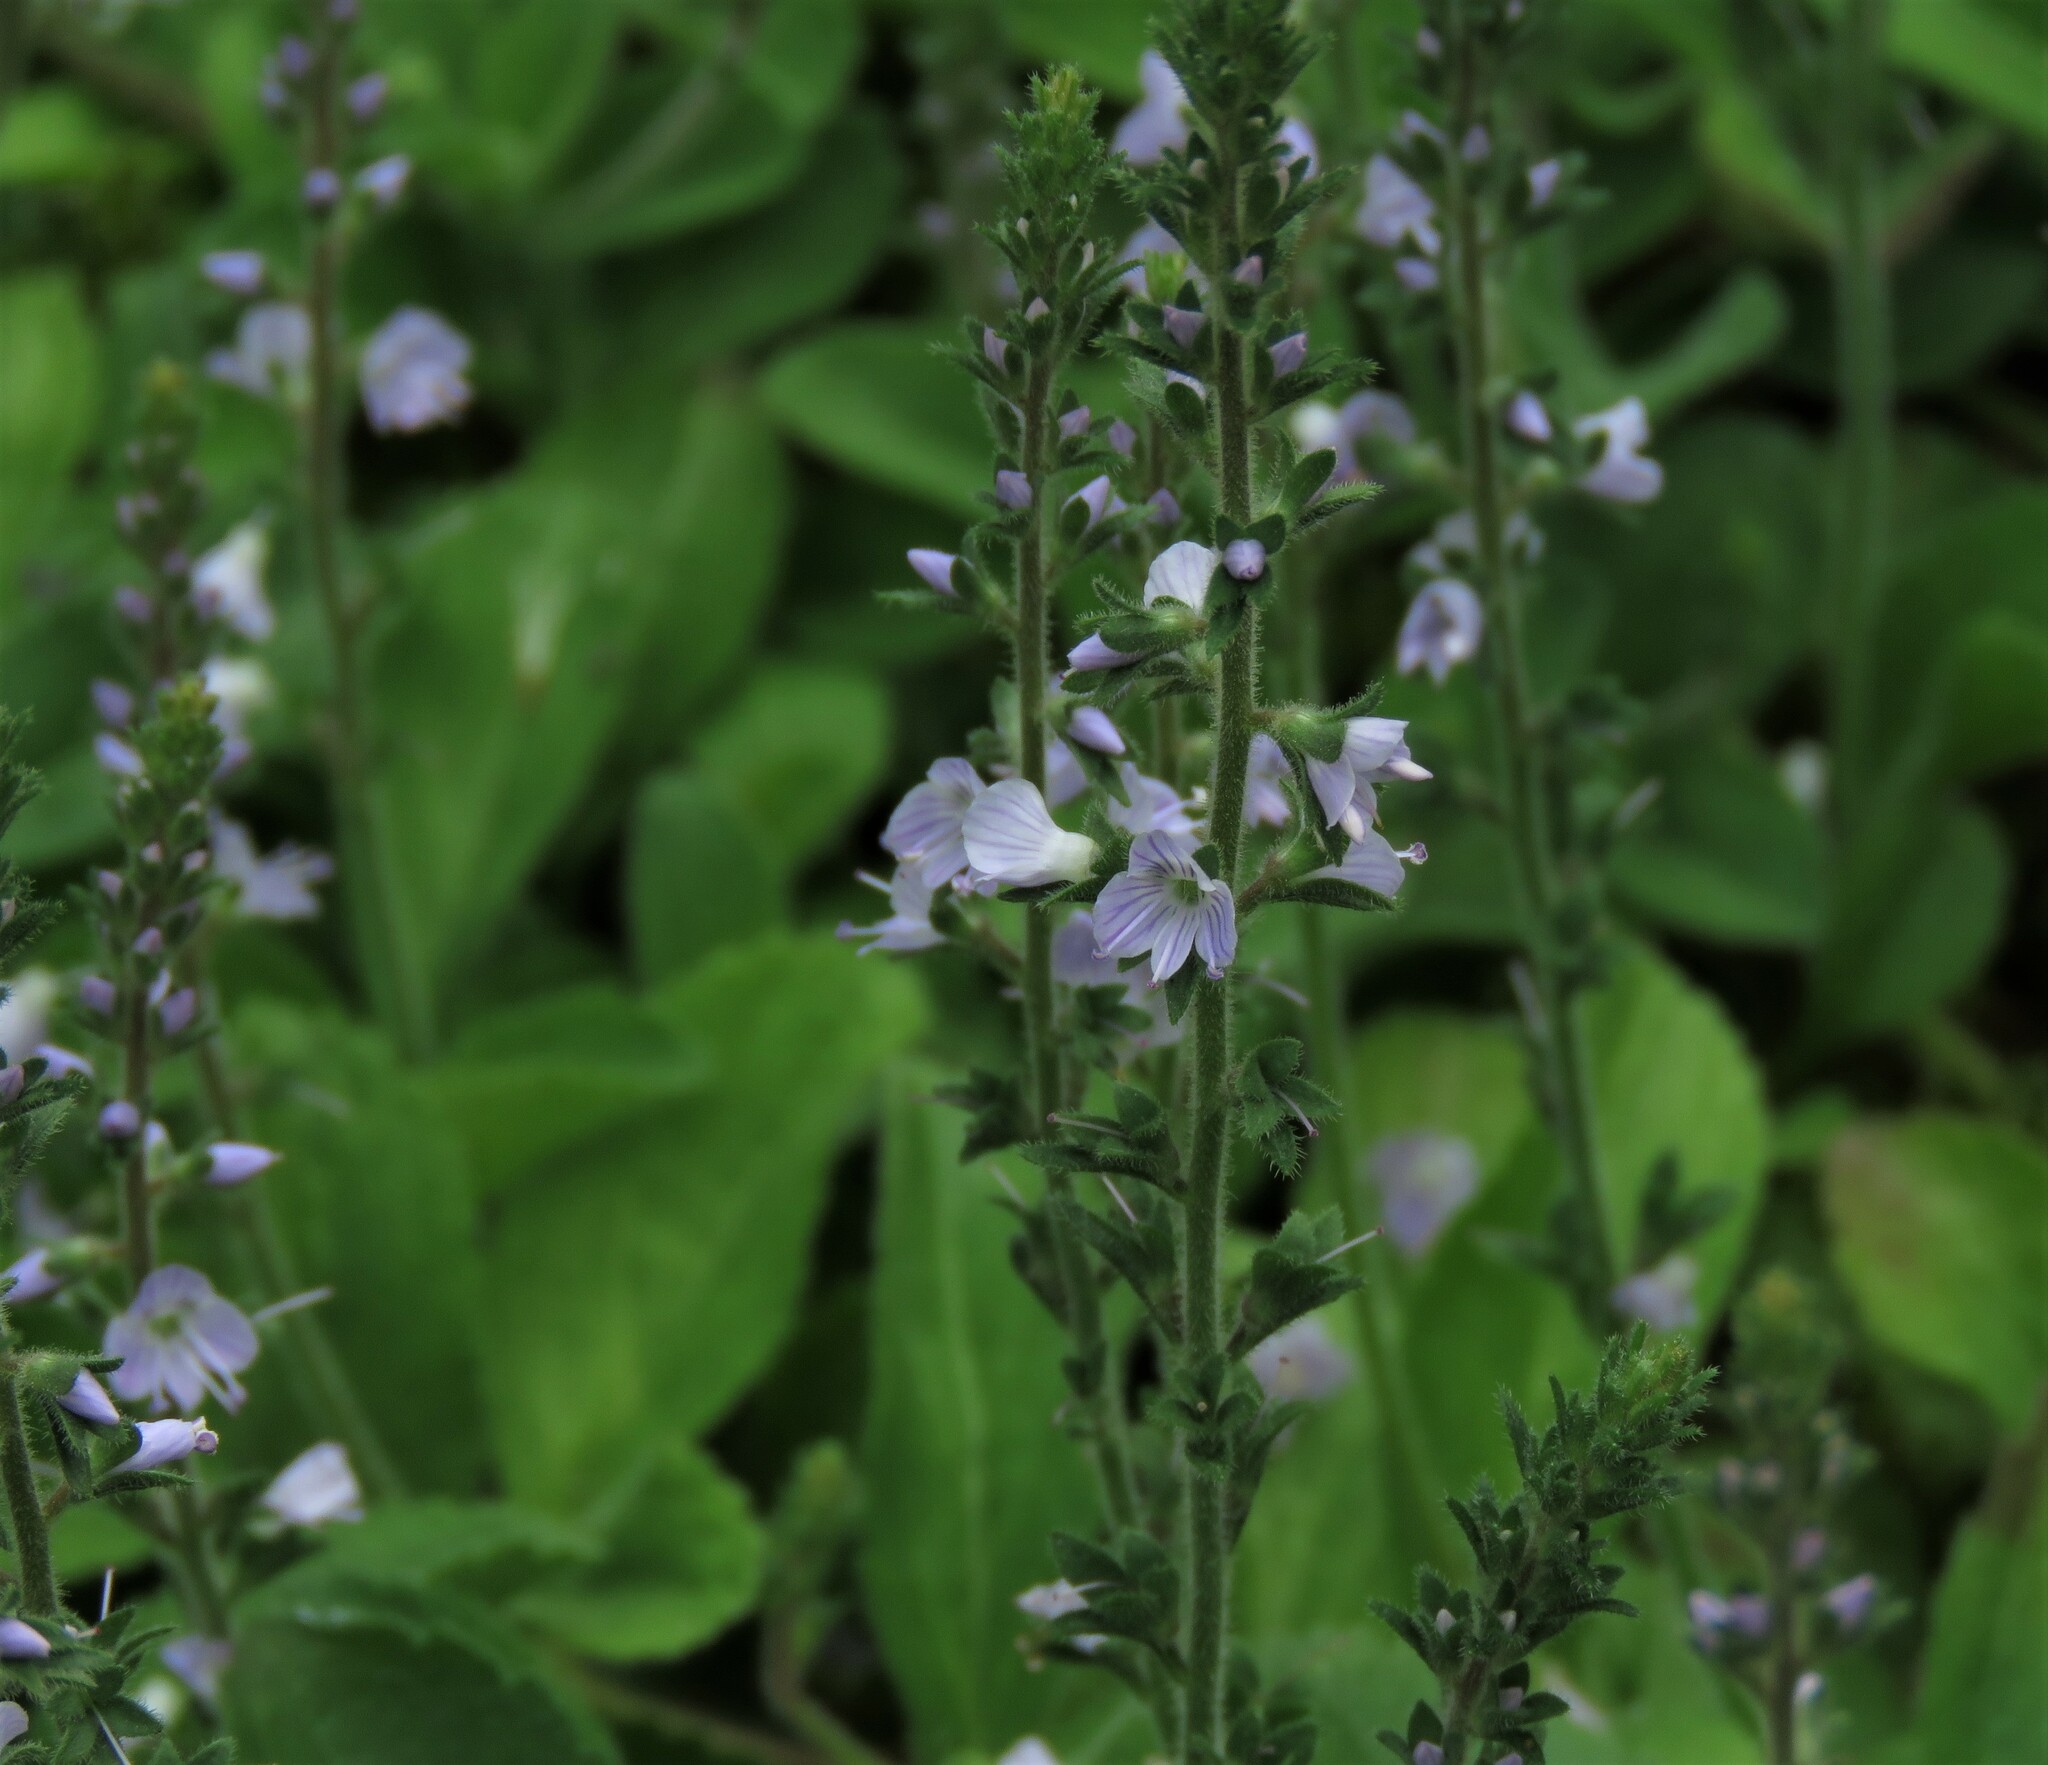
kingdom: Plantae
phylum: Tracheophyta
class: Magnoliopsida
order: Lamiales
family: Plantaginaceae
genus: Veronica
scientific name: Veronica officinalis
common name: Common speedwell
